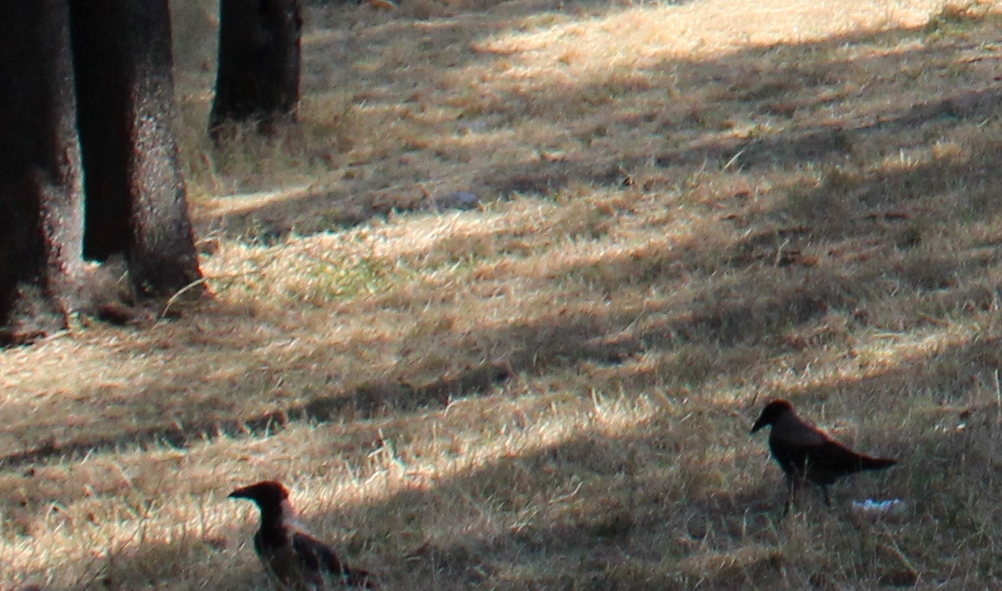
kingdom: Animalia
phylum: Chordata
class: Aves
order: Passeriformes
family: Corvidae
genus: Corvus
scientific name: Corvus cornix
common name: Hooded crow
